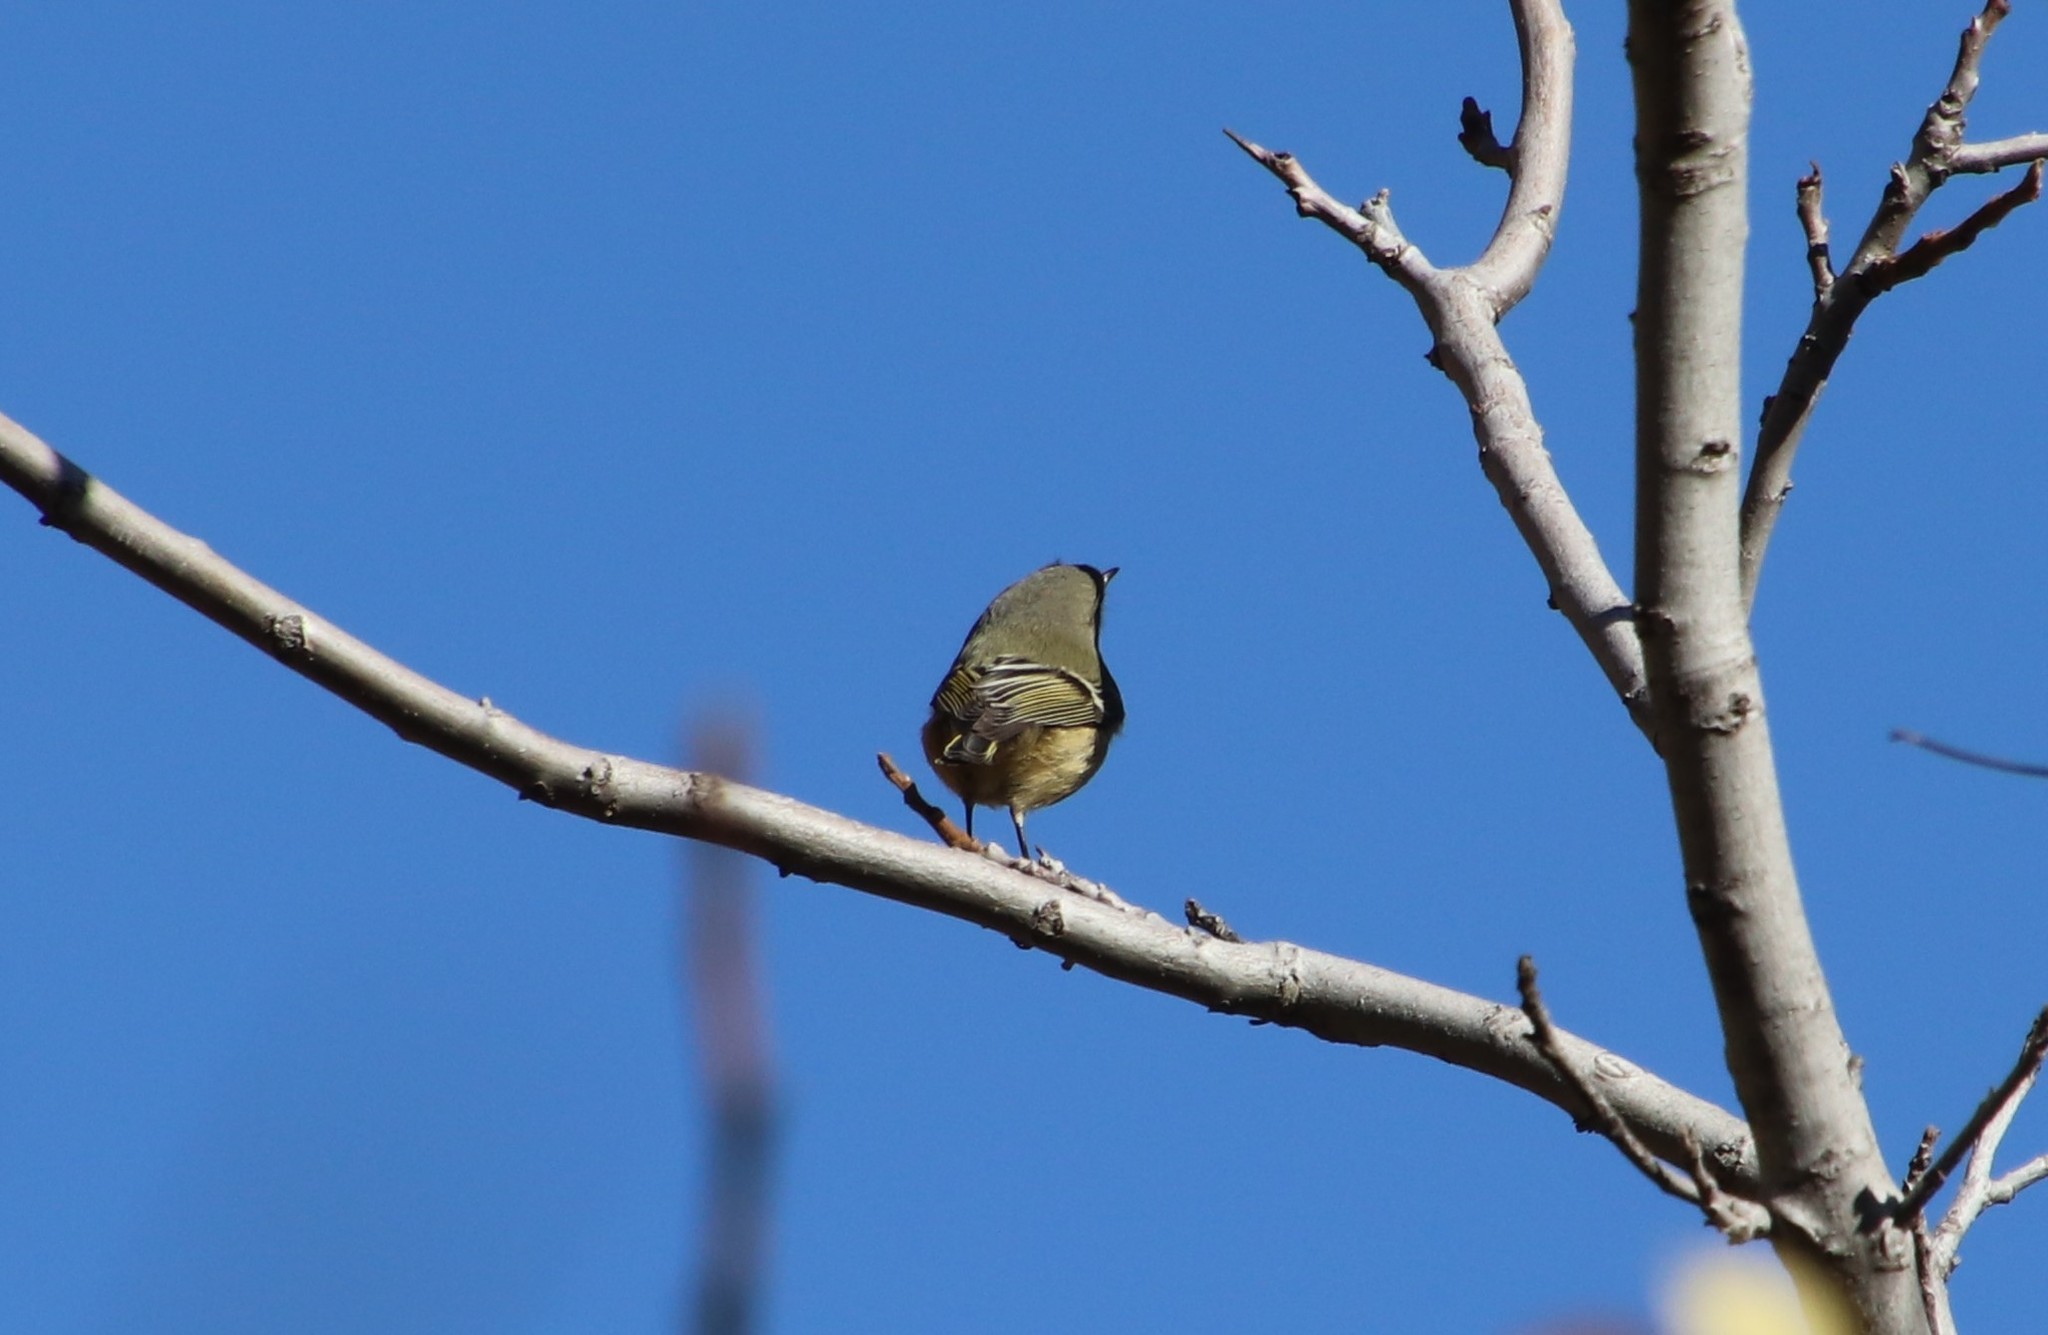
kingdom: Animalia
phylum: Chordata
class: Aves
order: Passeriformes
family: Regulidae
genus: Regulus
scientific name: Regulus calendula
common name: Ruby-crowned kinglet
